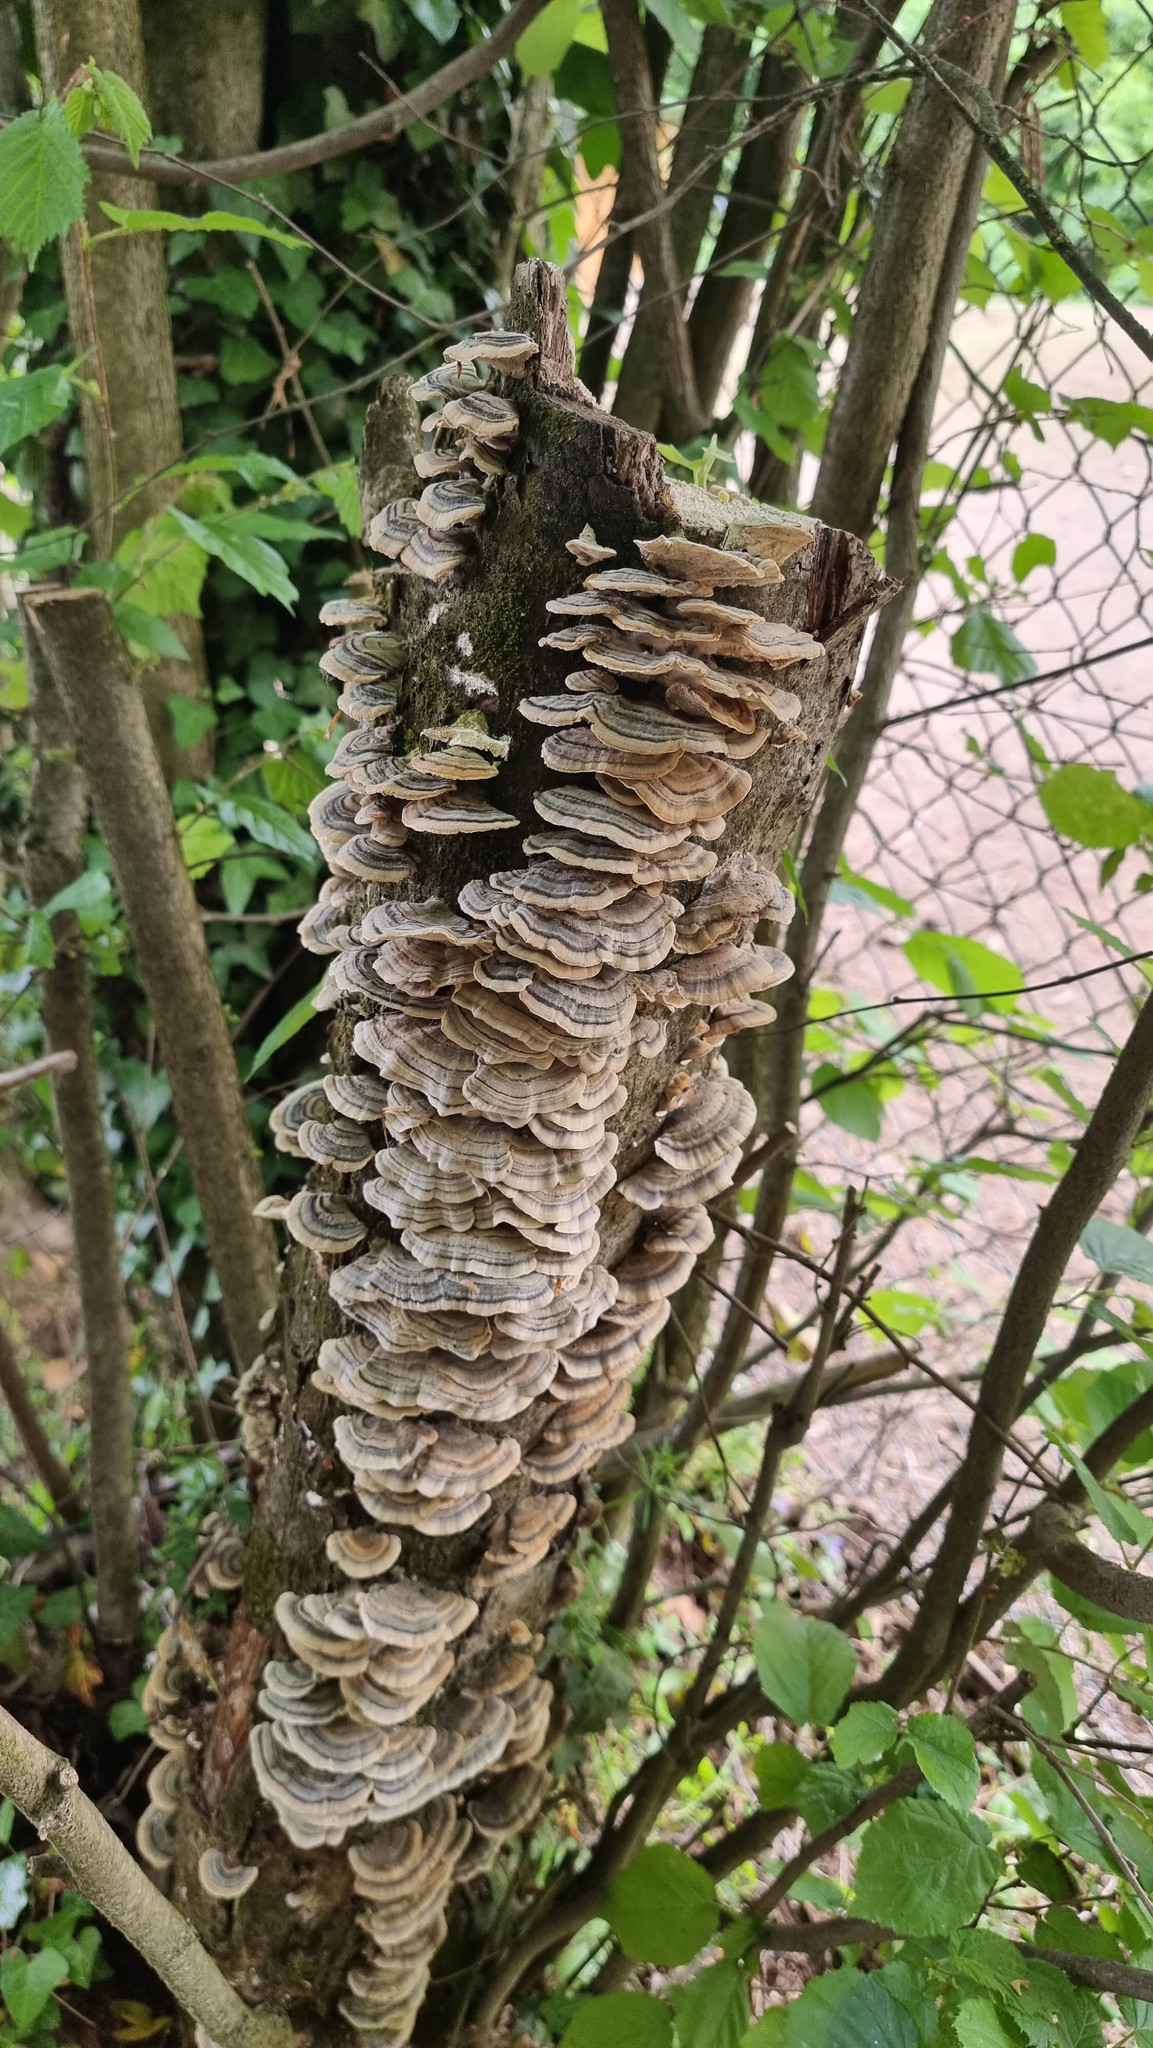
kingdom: Fungi
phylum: Basidiomycota
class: Agaricomycetes
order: Polyporales
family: Polyporaceae
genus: Trametes
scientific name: Trametes versicolor
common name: Turkeytail
